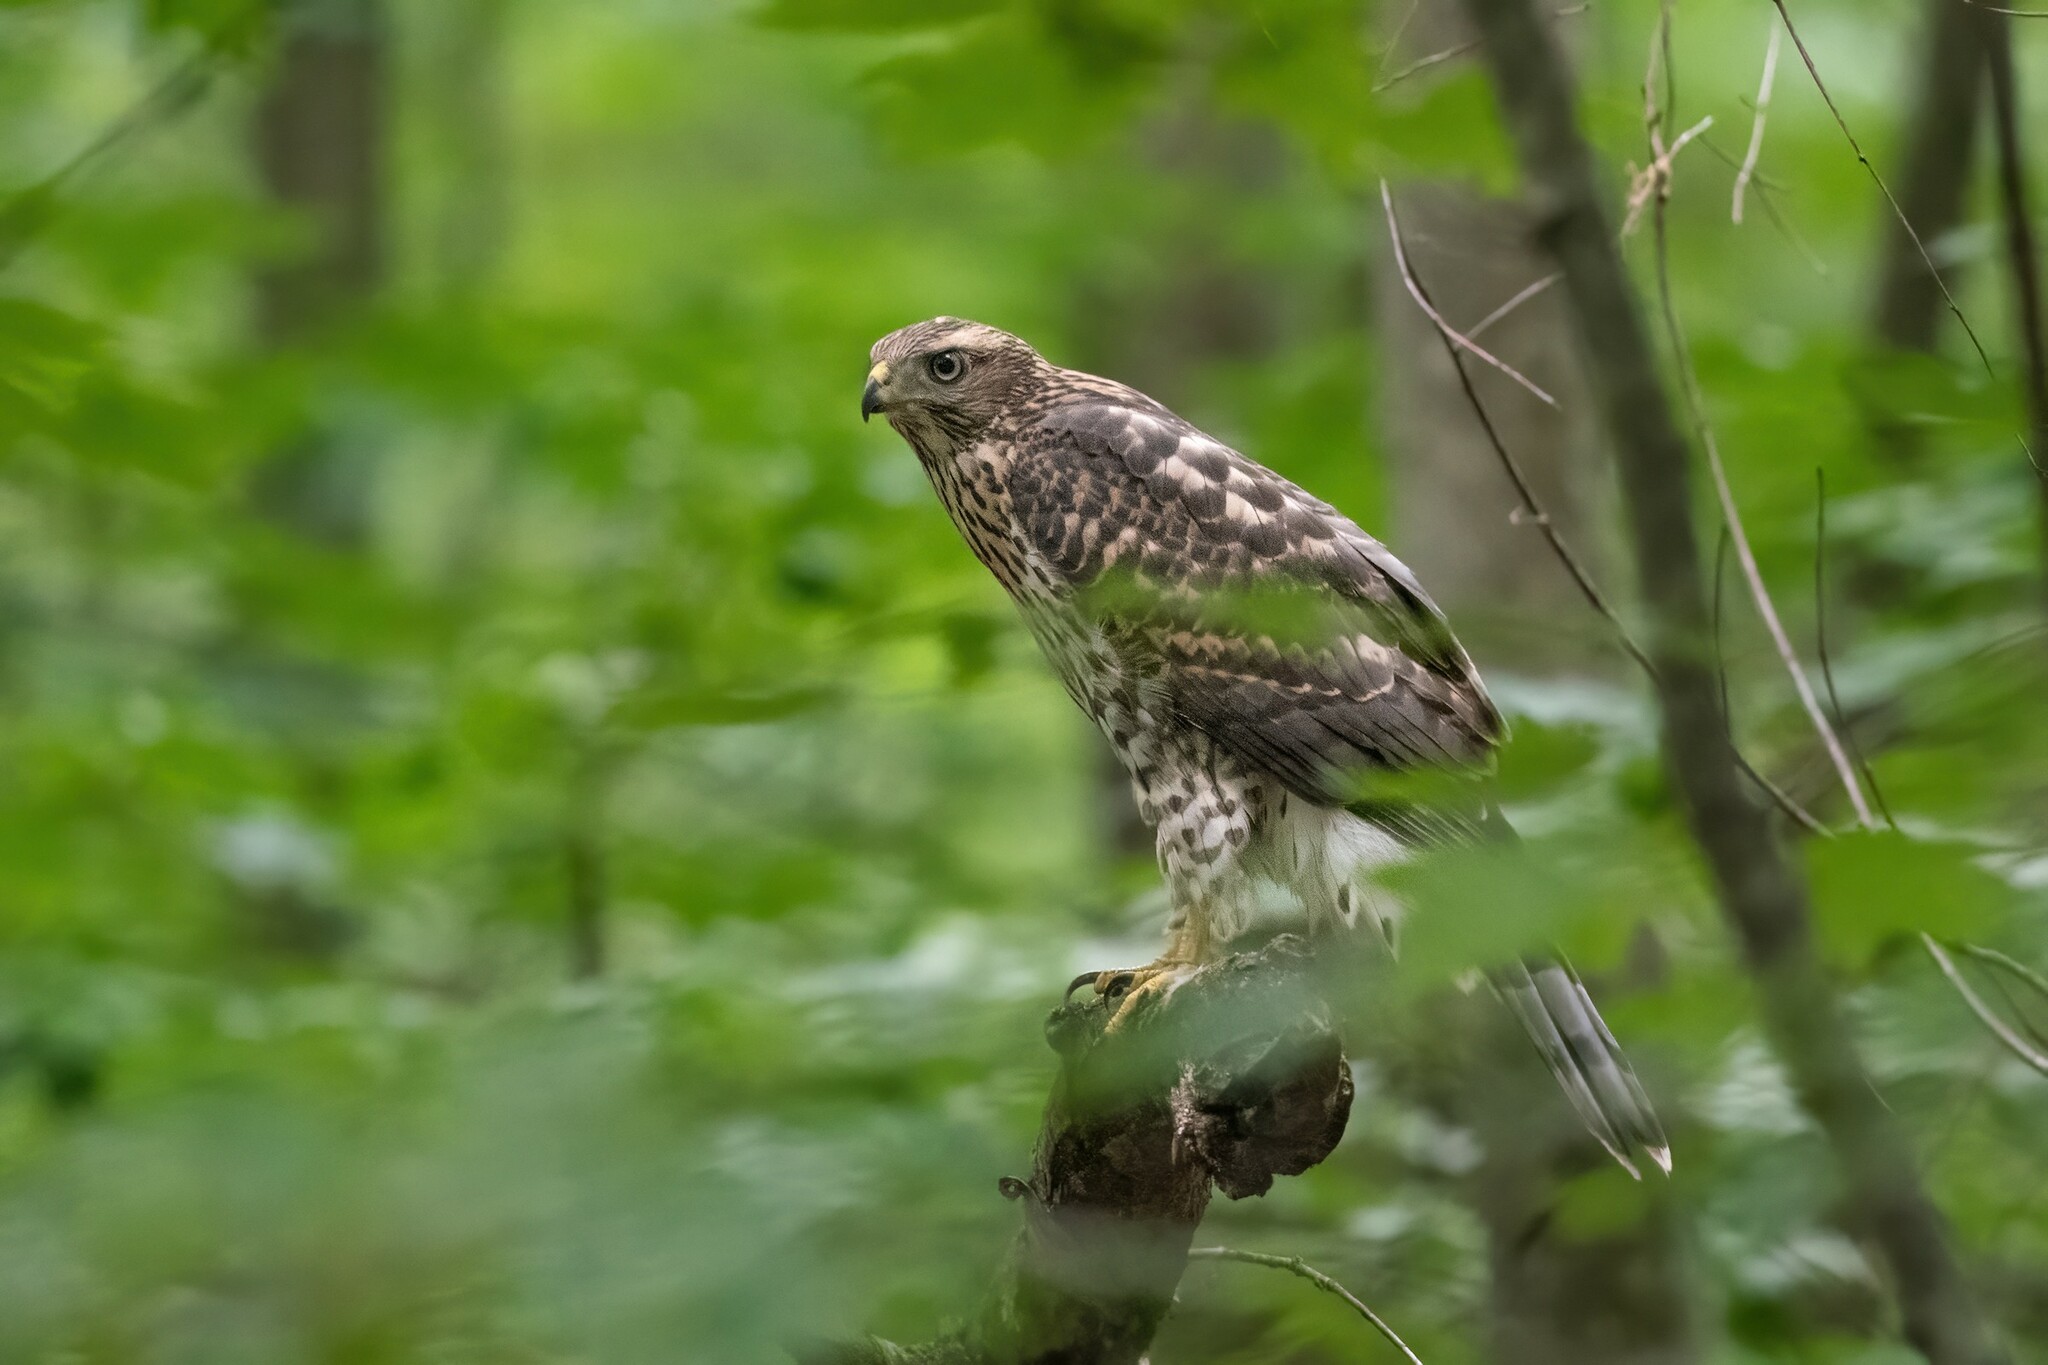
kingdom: Animalia
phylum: Chordata
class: Aves
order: Accipitriformes
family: Accipitridae
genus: Accipiter
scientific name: Accipiter gentilis
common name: Northern goshawk
